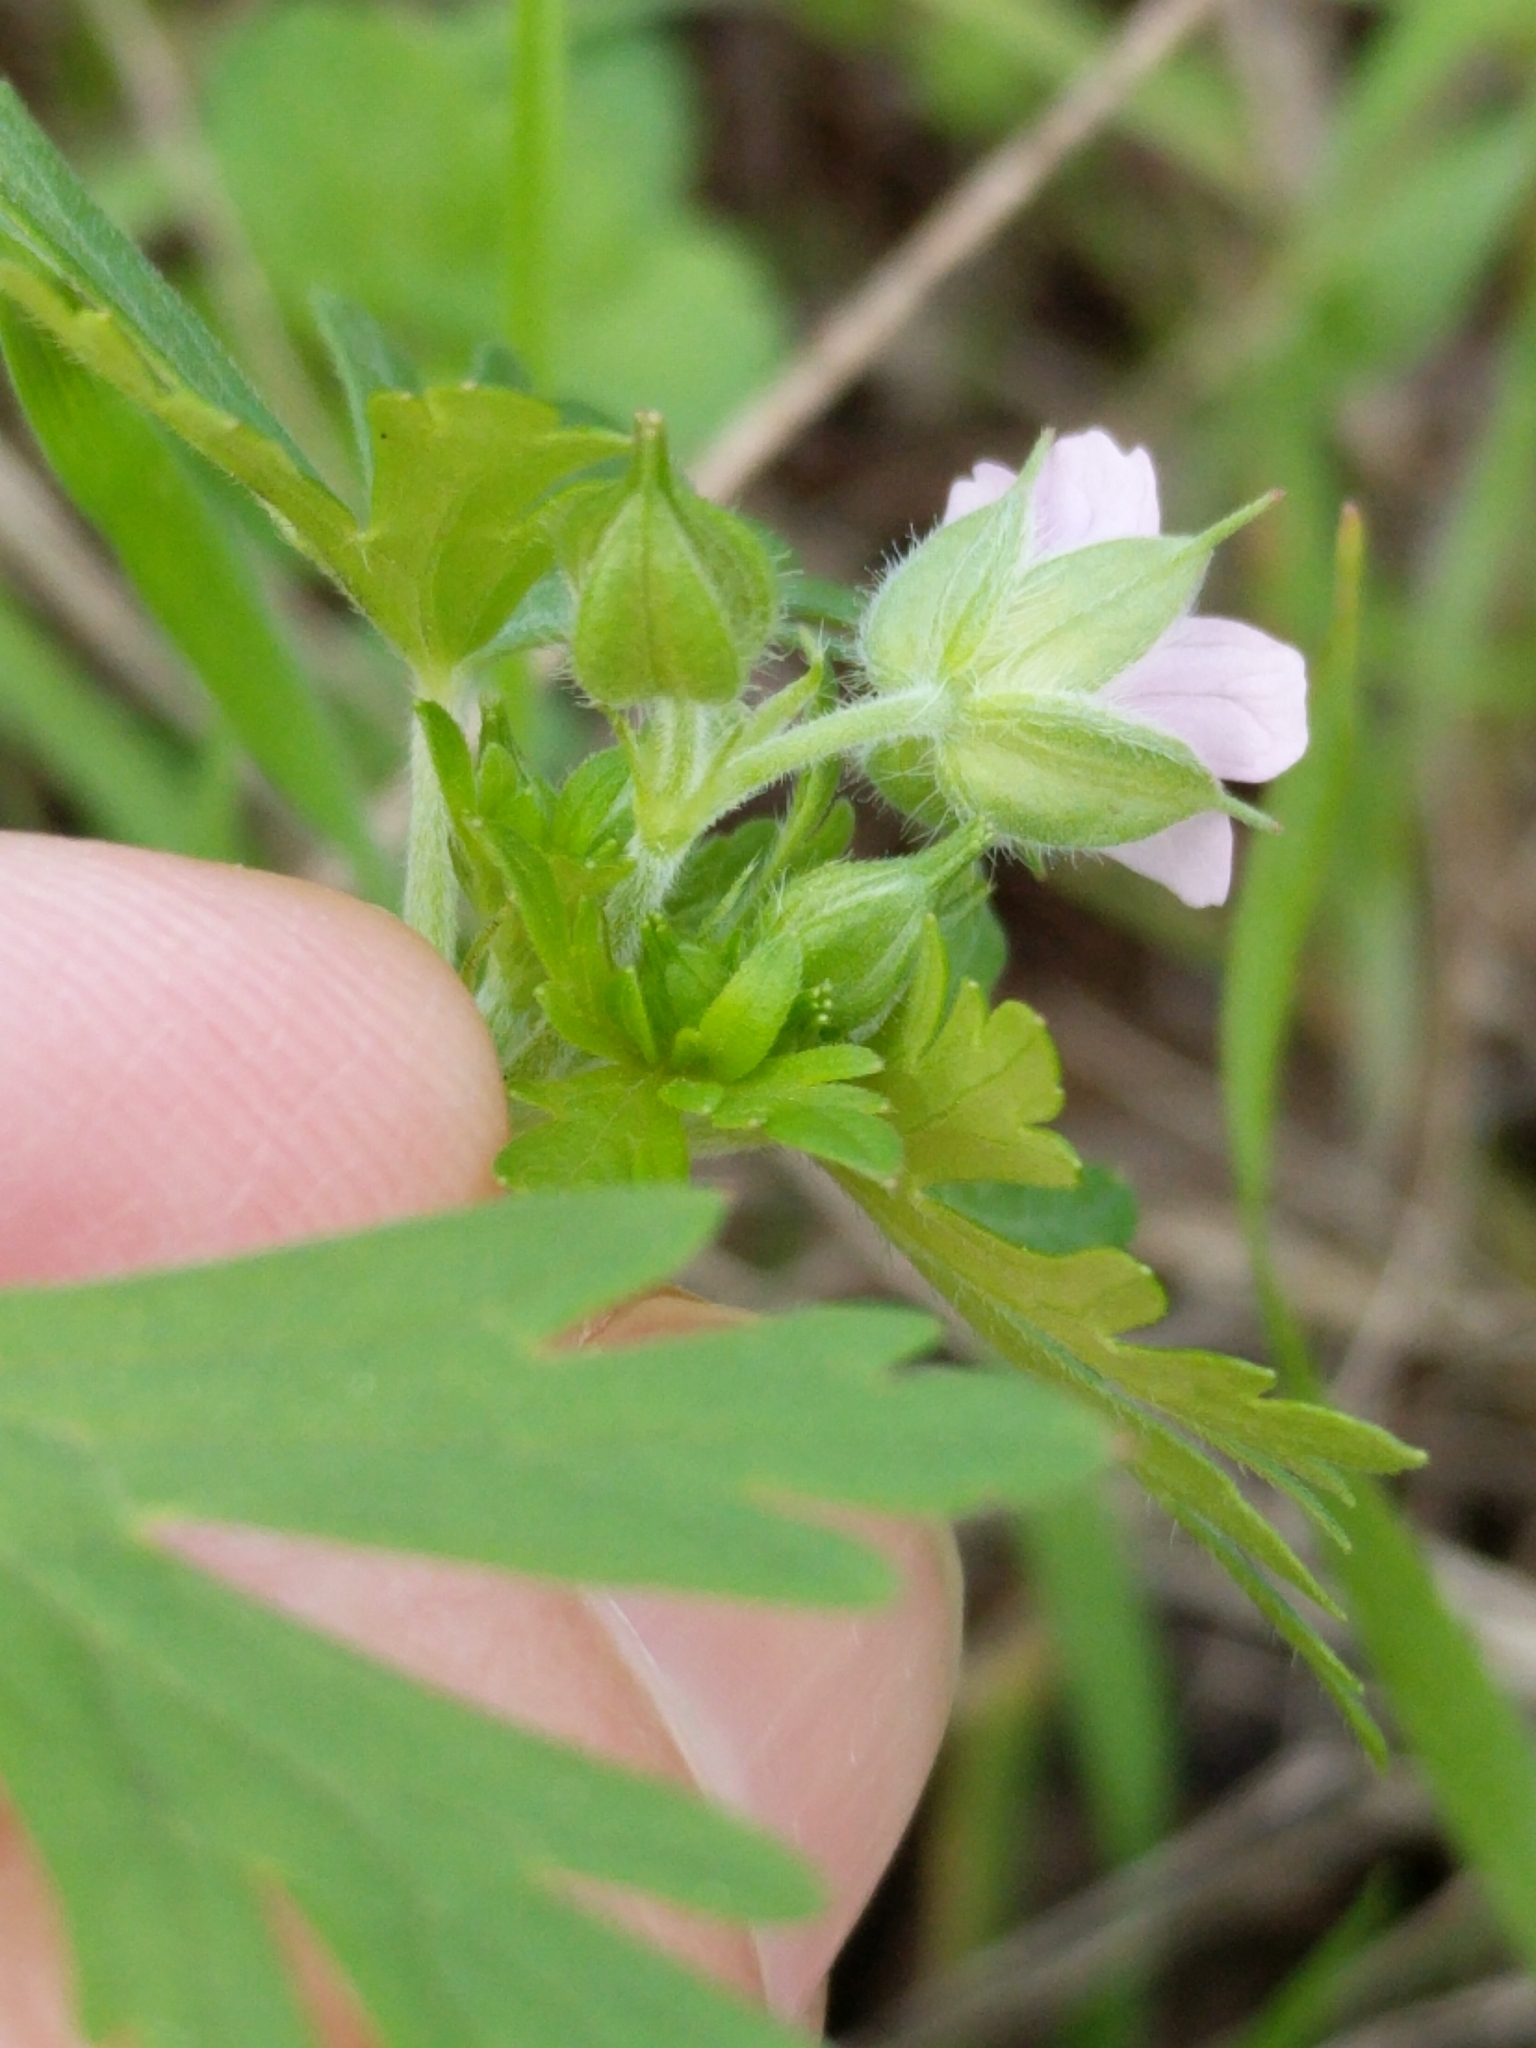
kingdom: Plantae
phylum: Tracheophyta
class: Magnoliopsida
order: Geraniales
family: Geraniaceae
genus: Geranium
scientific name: Geranium carolinianum
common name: Carolina crane's-bill
